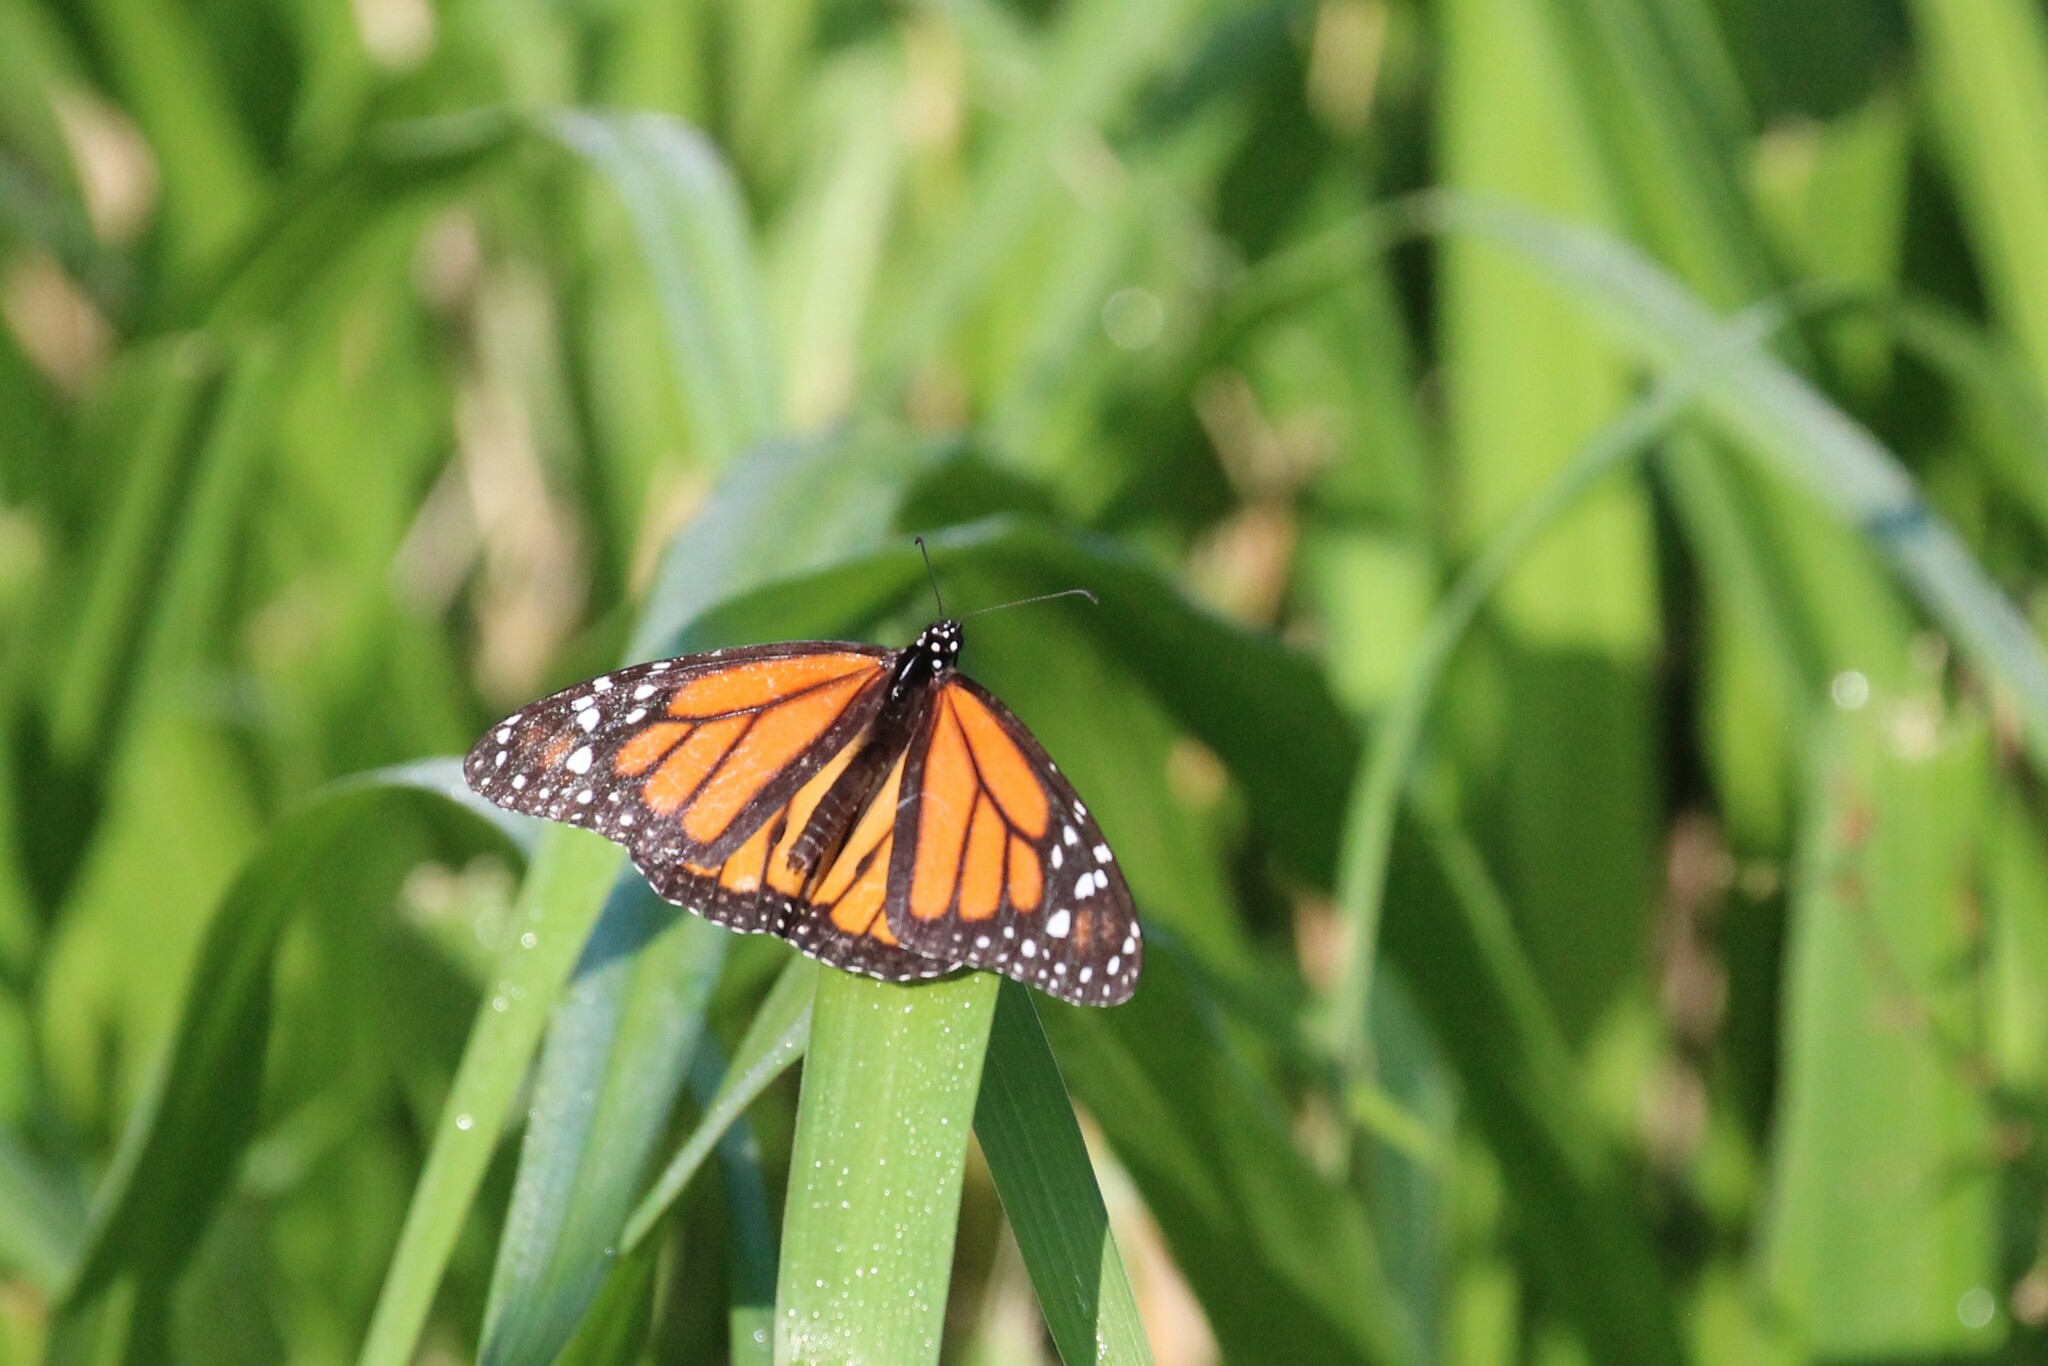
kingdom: Animalia
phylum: Arthropoda
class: Insecta
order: Lepidoptera
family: Nymphalidae
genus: Danaus
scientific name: Danaus plexippus
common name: Monarch
